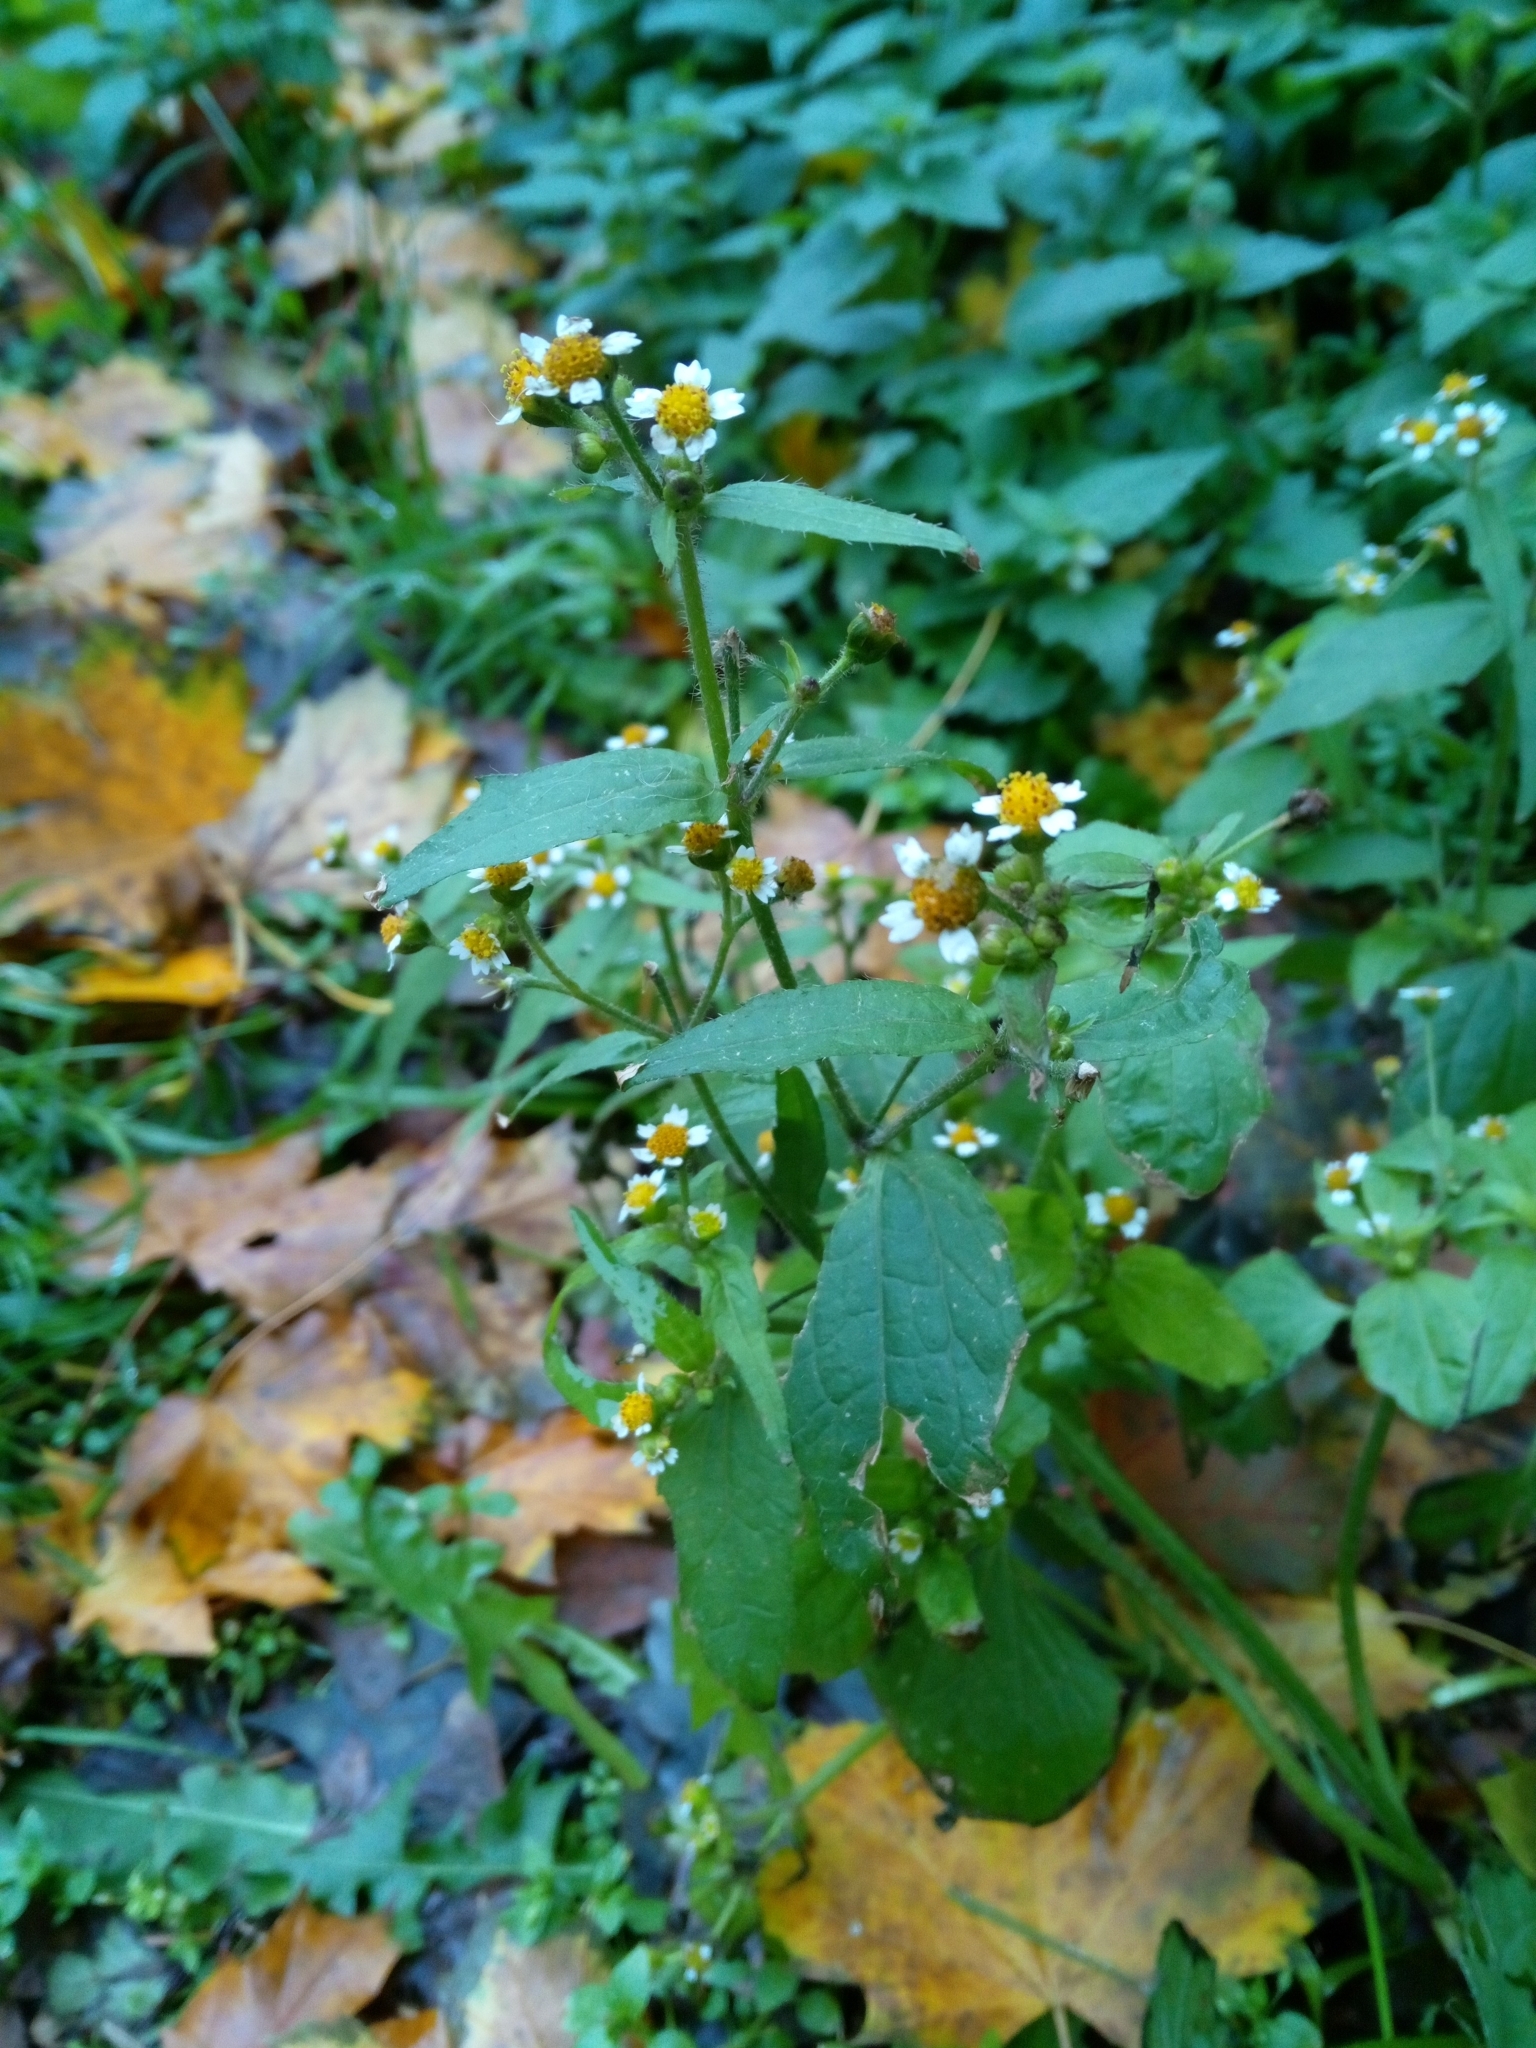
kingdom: Plantae
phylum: Tracheophyta
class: Magnoliopsida
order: Asterales
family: Asteraceae
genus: Galinsoga
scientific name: Galinsoga quadriradiata
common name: Shaggy soldier
